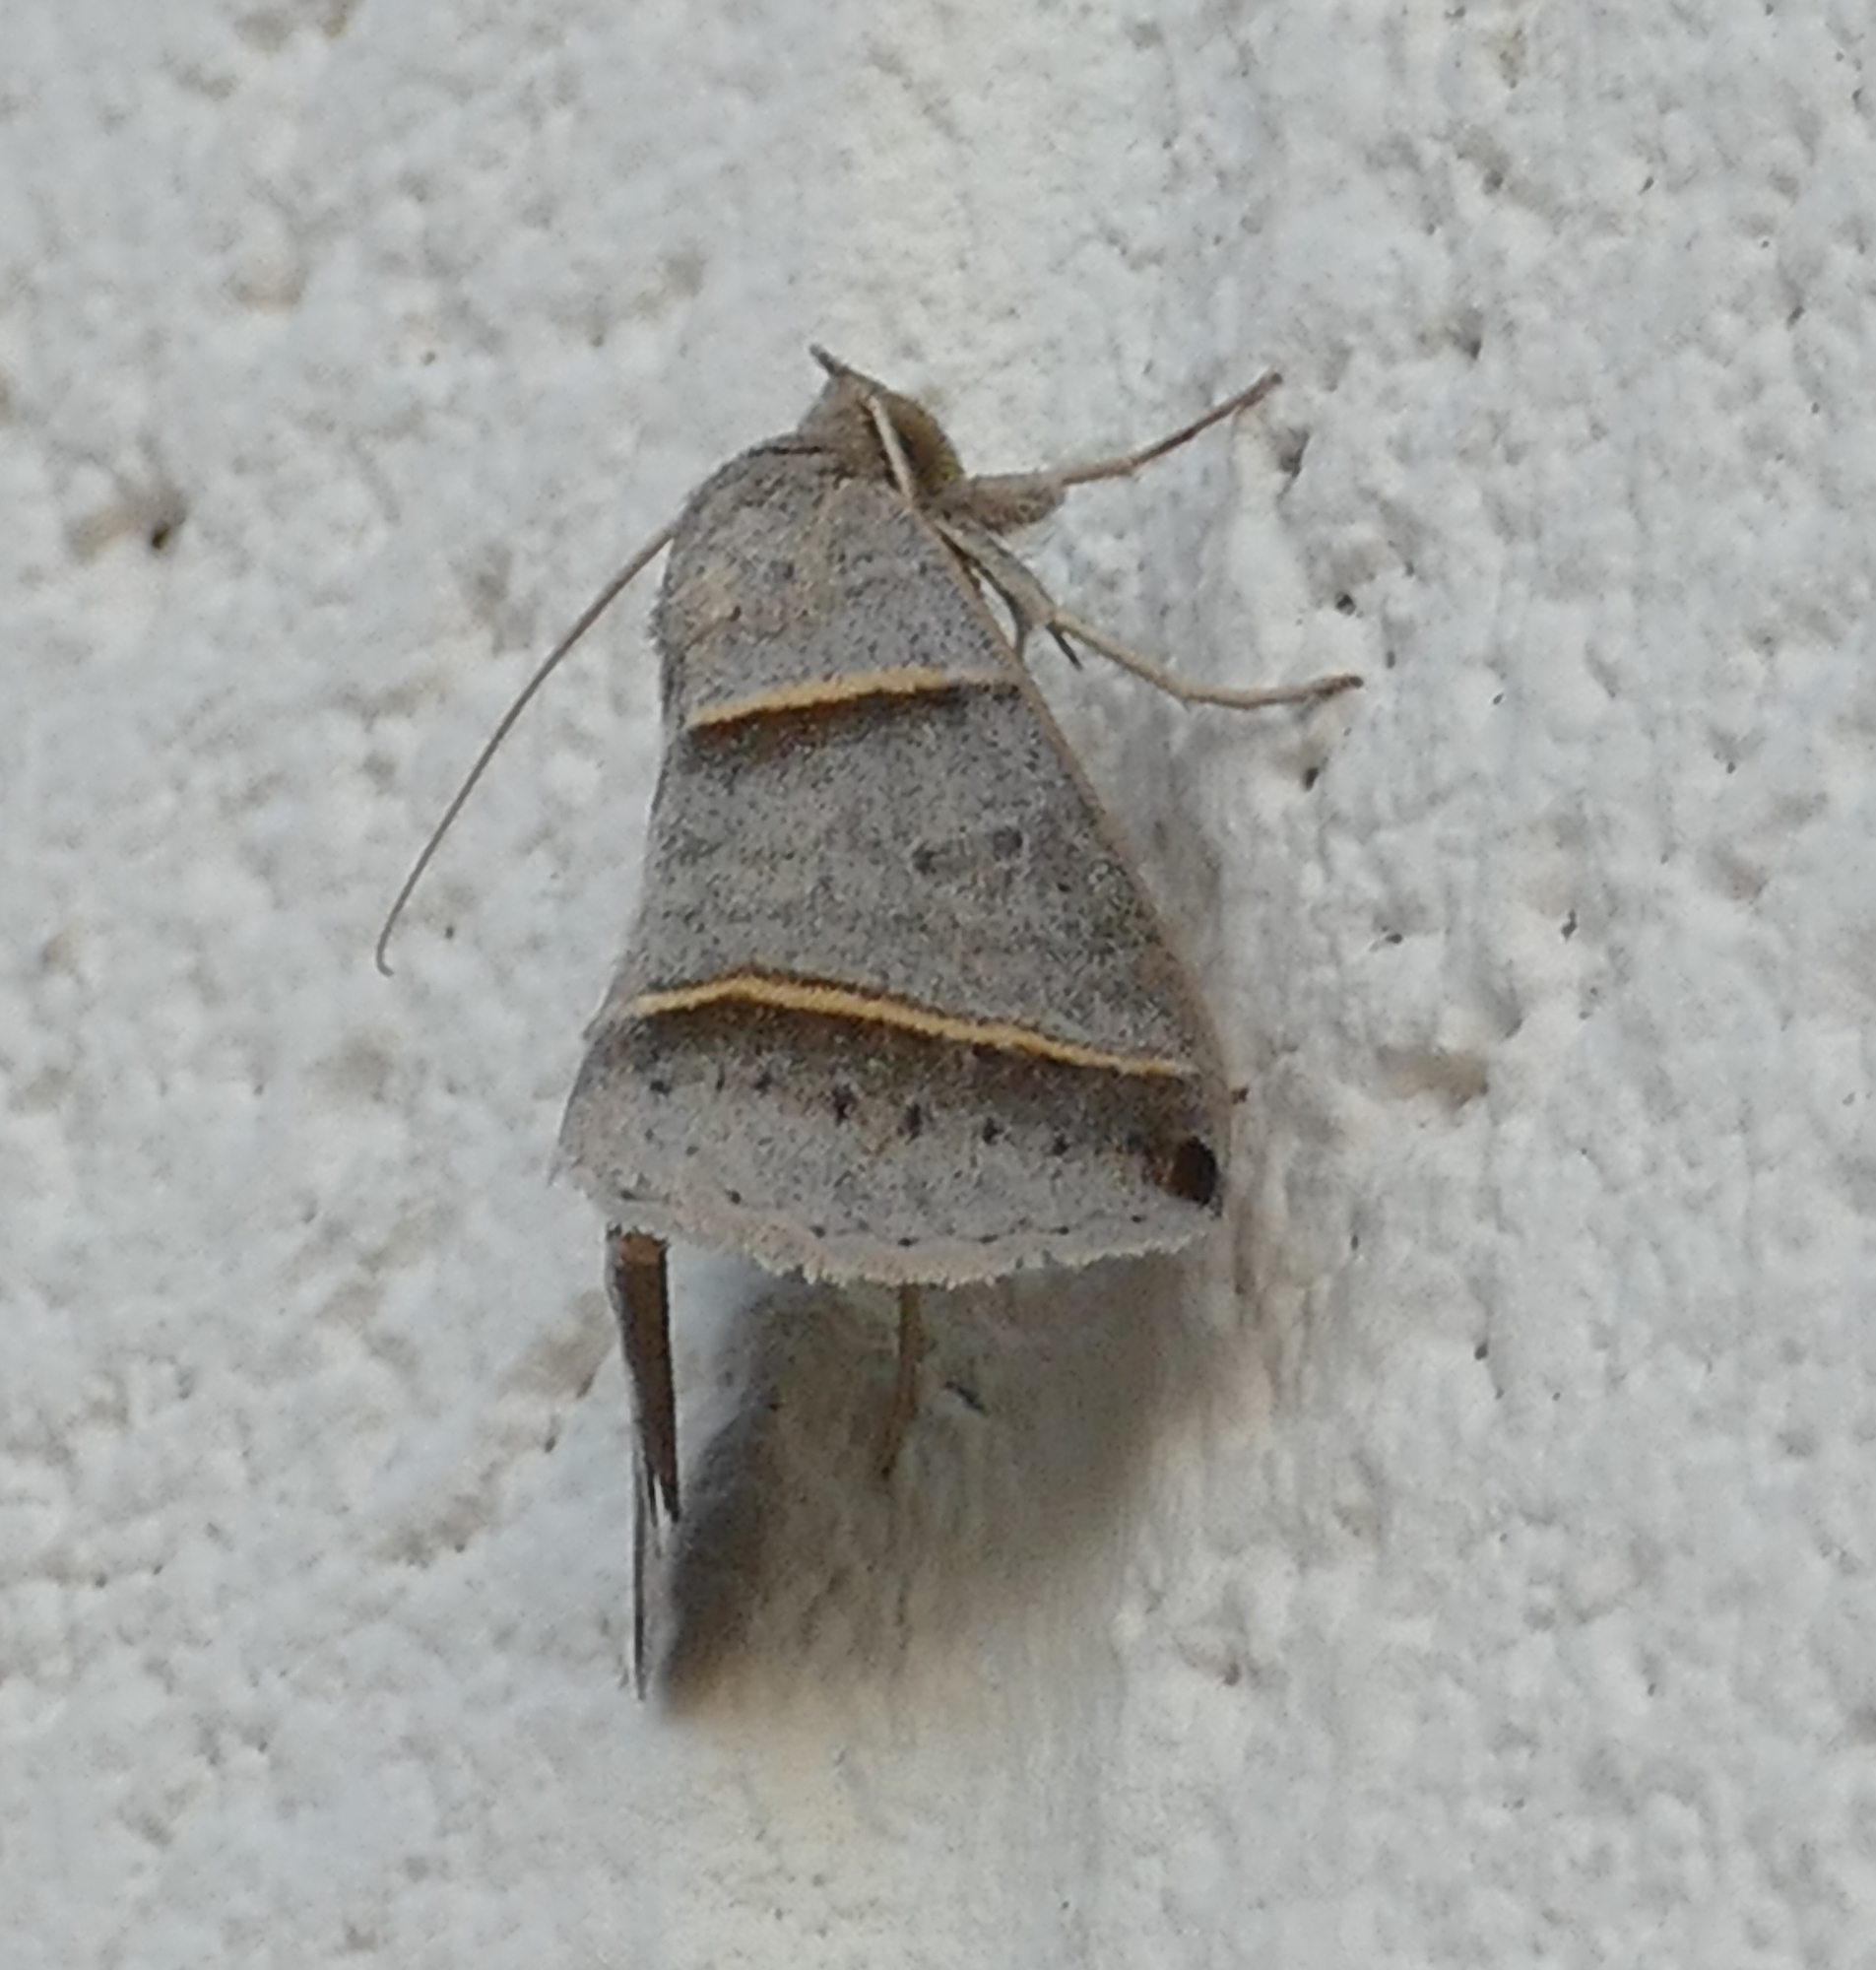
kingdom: Animalia
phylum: Arthropoda
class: Insecta
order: Lepidoptera
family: Erebidae
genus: Ptichodis
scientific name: Ptichodis vinculum
